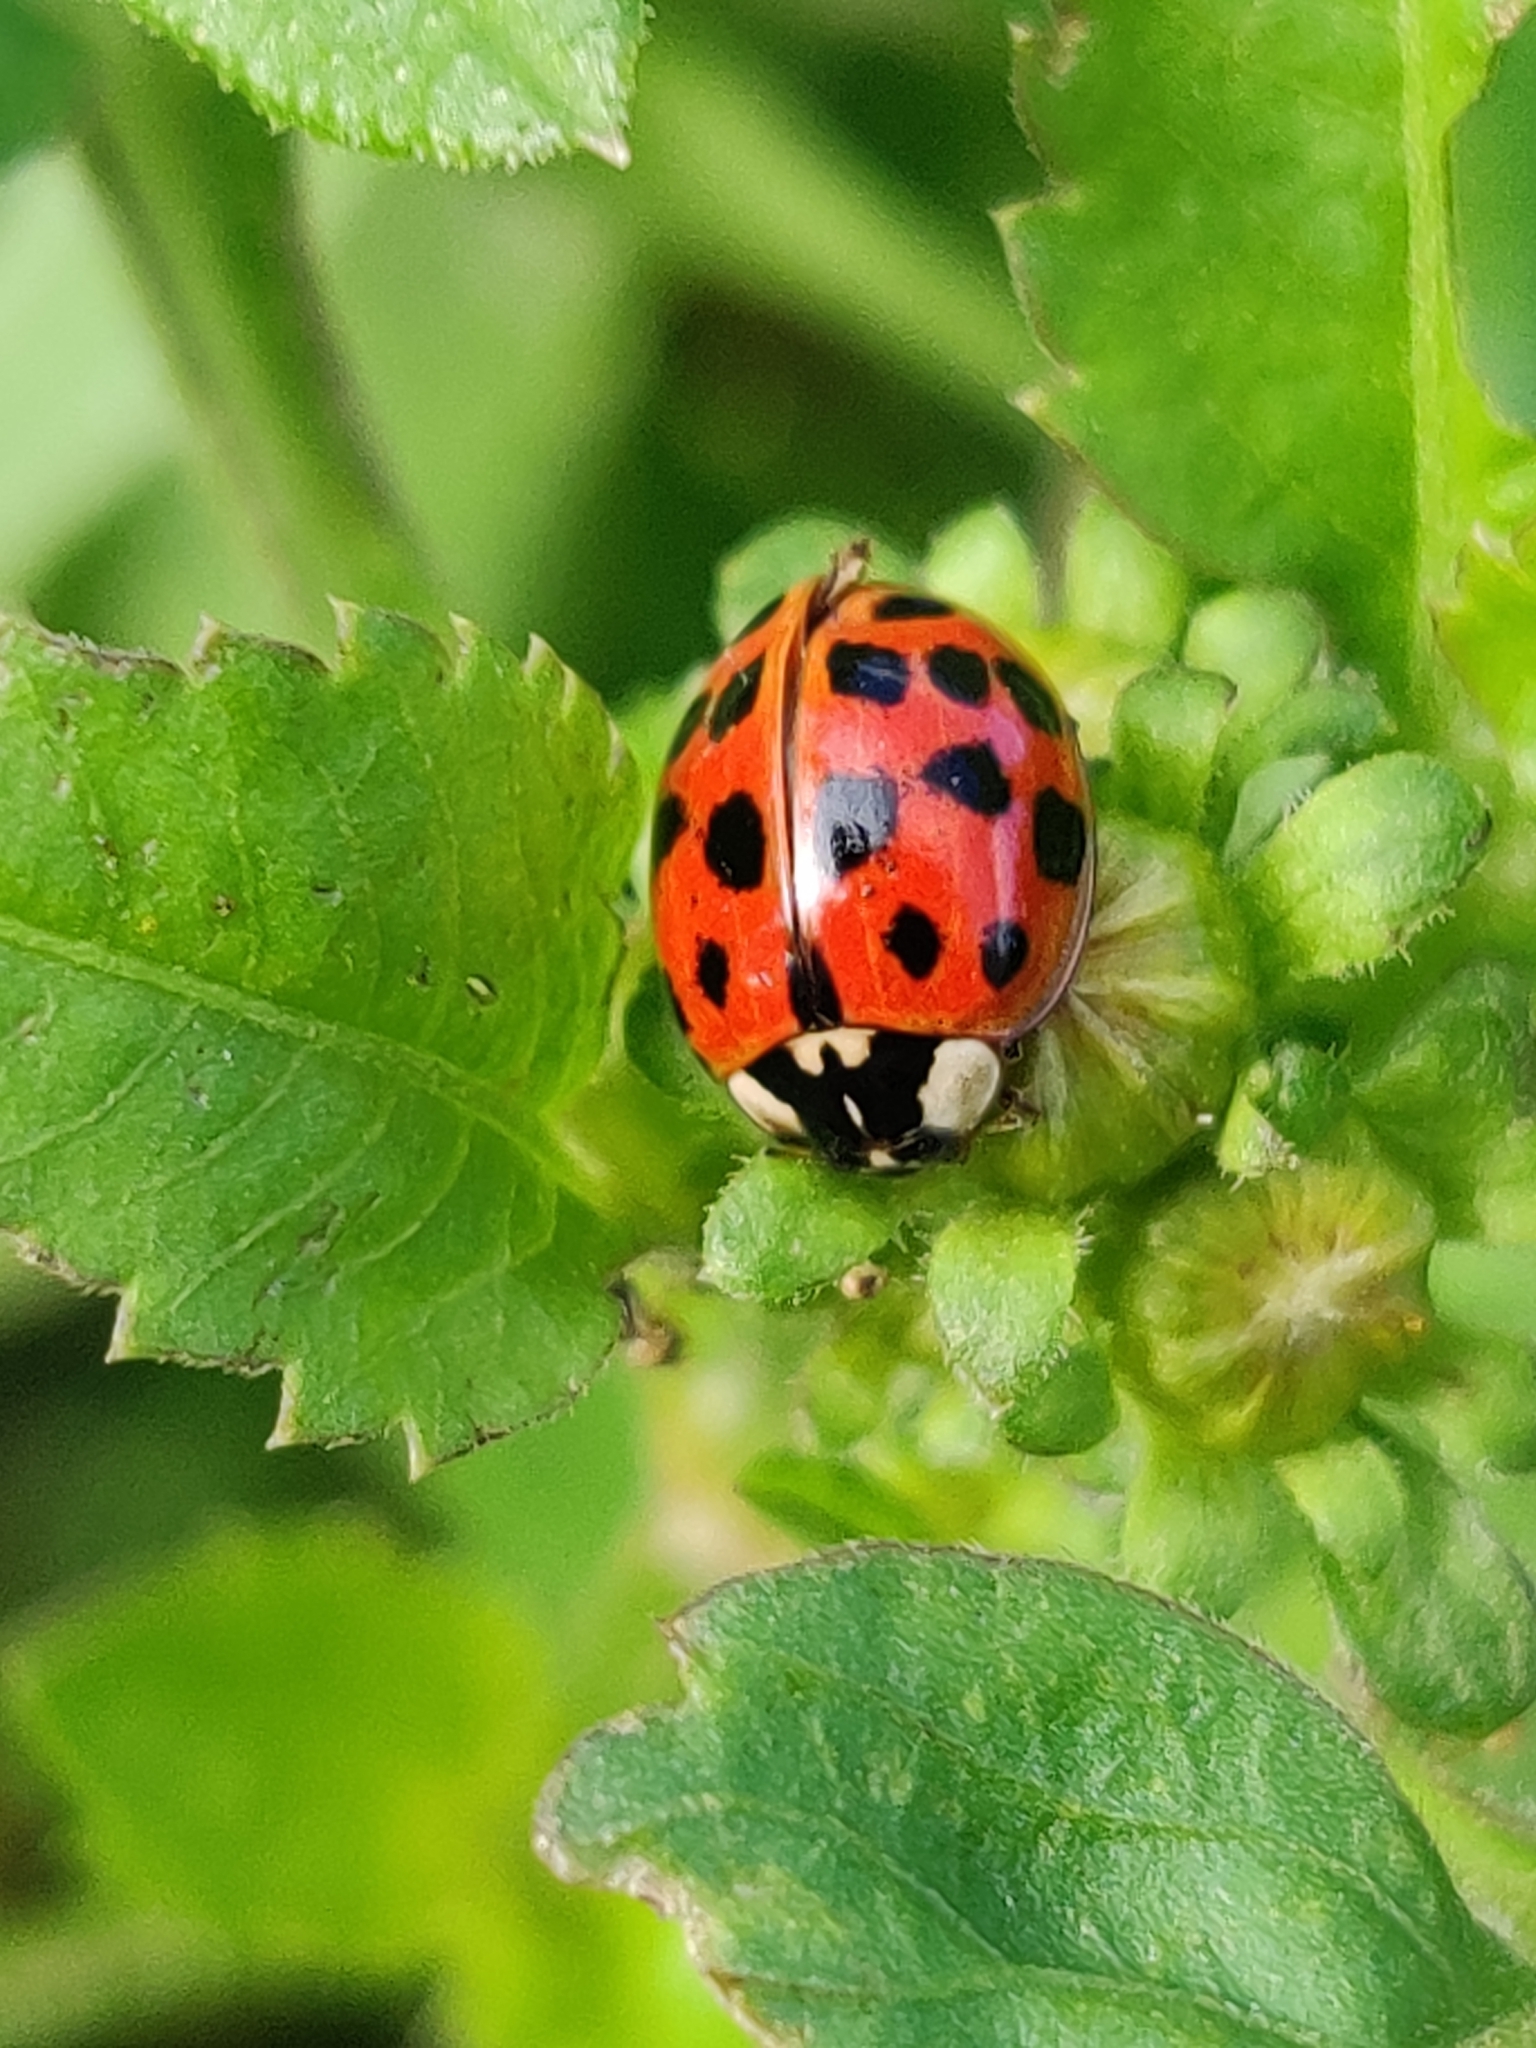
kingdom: Animalia
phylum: Arthropoda
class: Insecta
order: Coleoptera
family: Coccinellidae
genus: Harmonia
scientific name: Harmonia axyridis
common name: Harlequin ladybird
